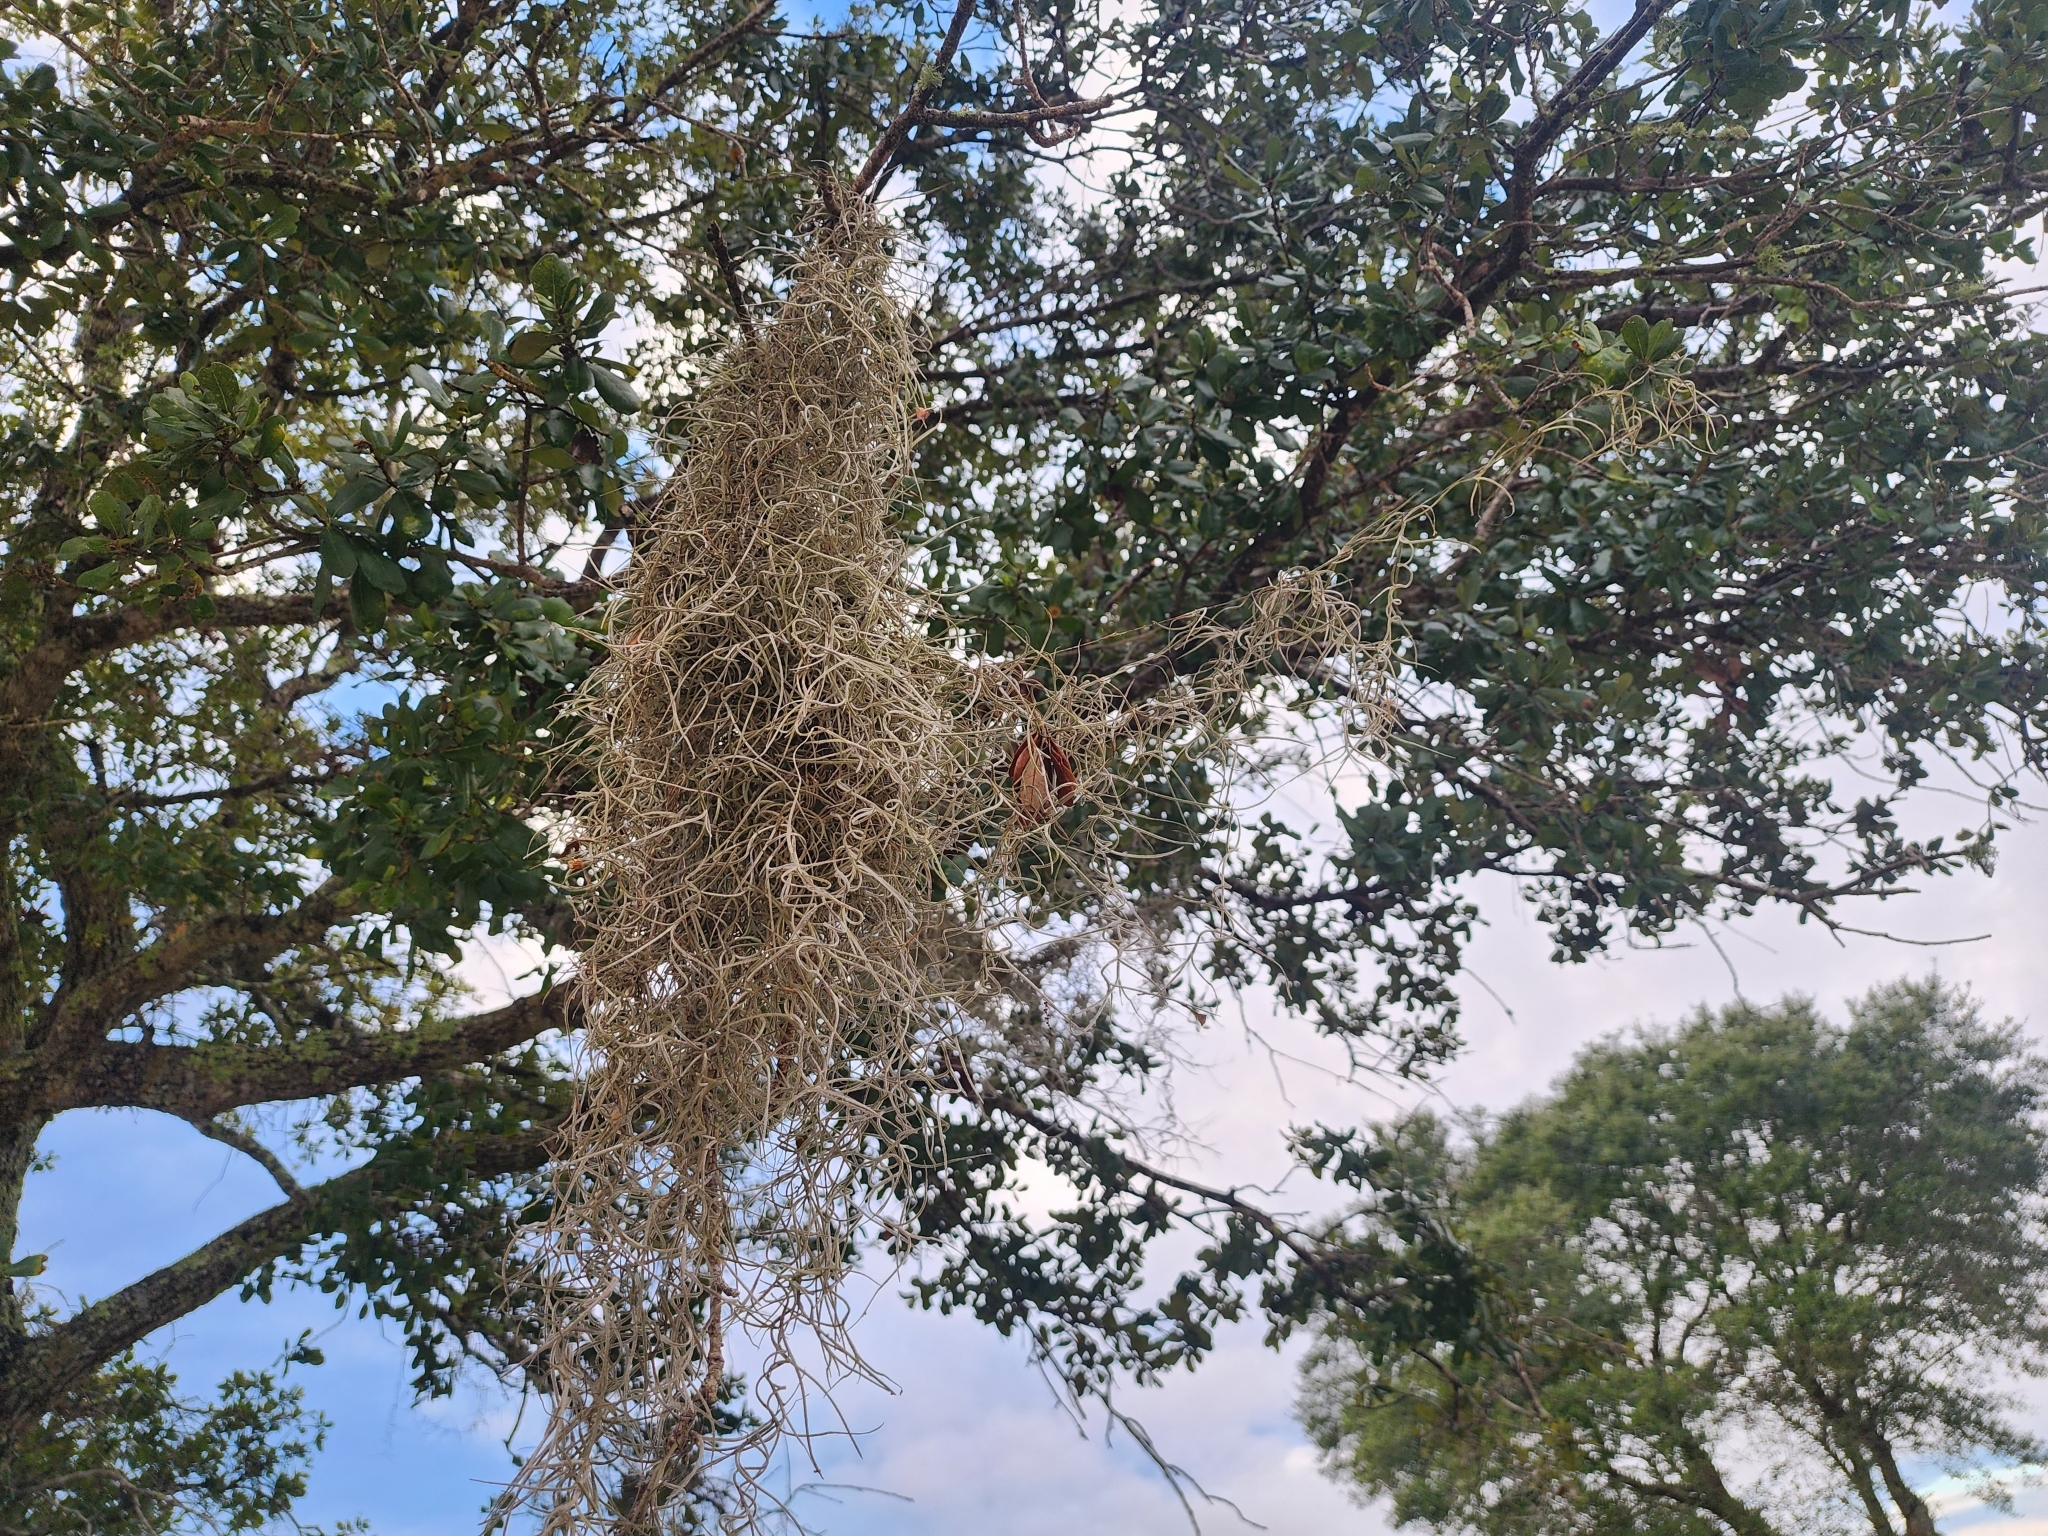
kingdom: Plantae
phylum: Tracheophyta
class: Liliopsida
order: Poales
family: Bromeliaceae
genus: Tillandsia
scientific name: Tillandsia usneoides
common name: Spanish moss
